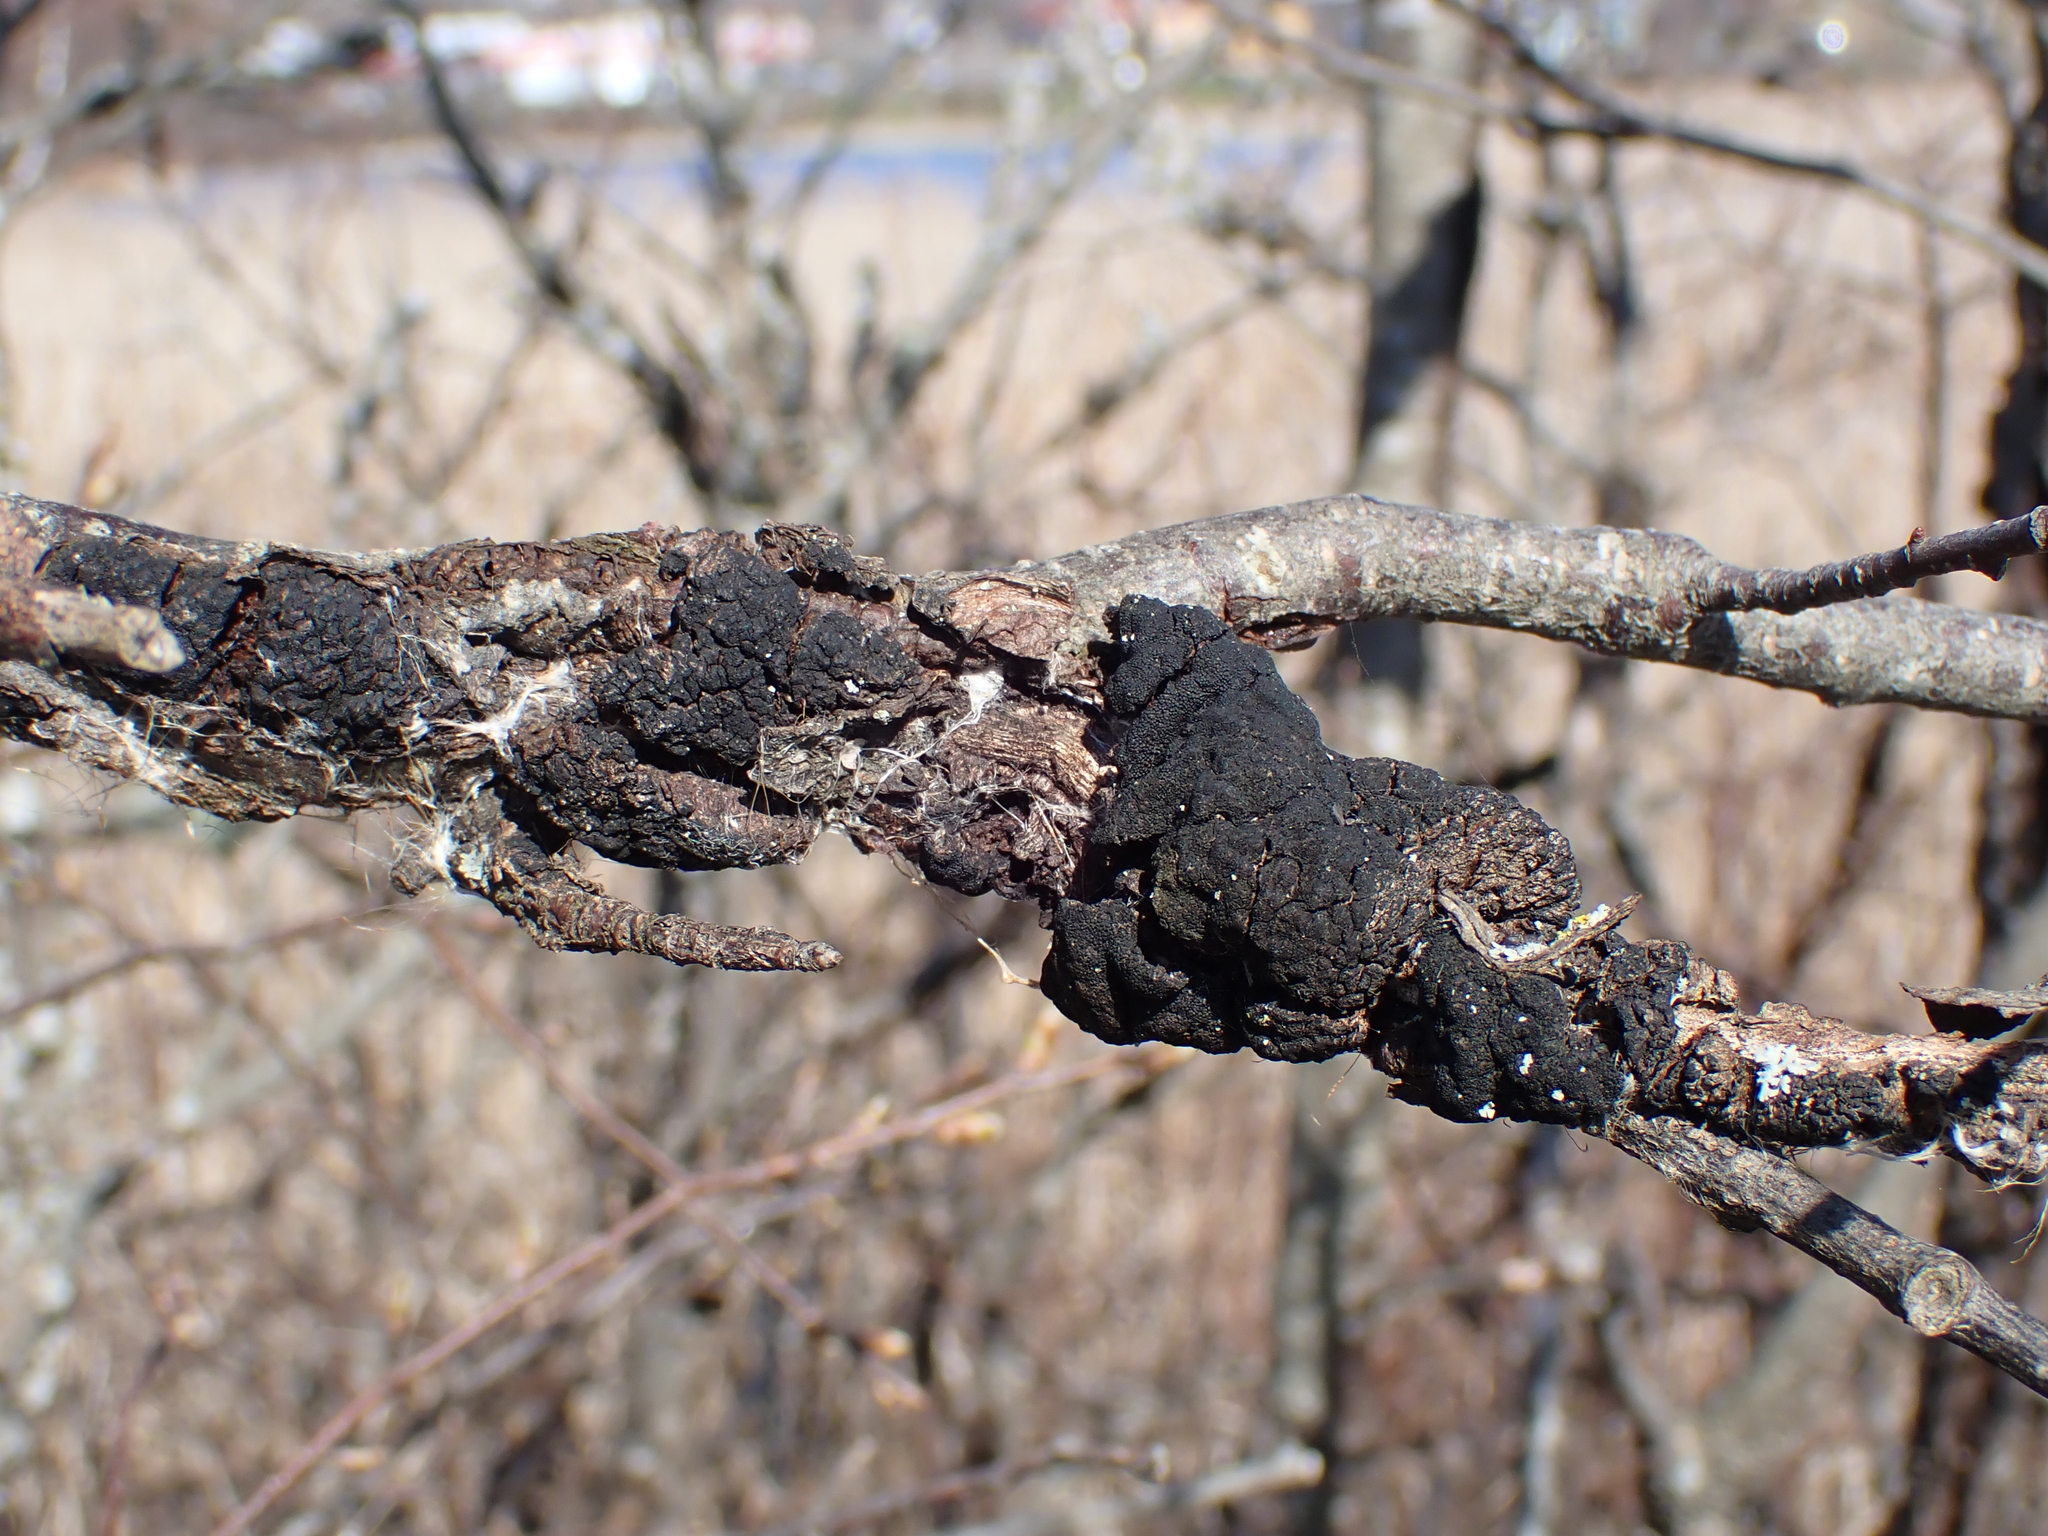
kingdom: Fungi
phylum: Ascomycota
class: Dothideomycetes
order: Venturiales
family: Venturiaceae
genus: Apiosporina
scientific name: Apiosporina morbosa
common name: Black knot
